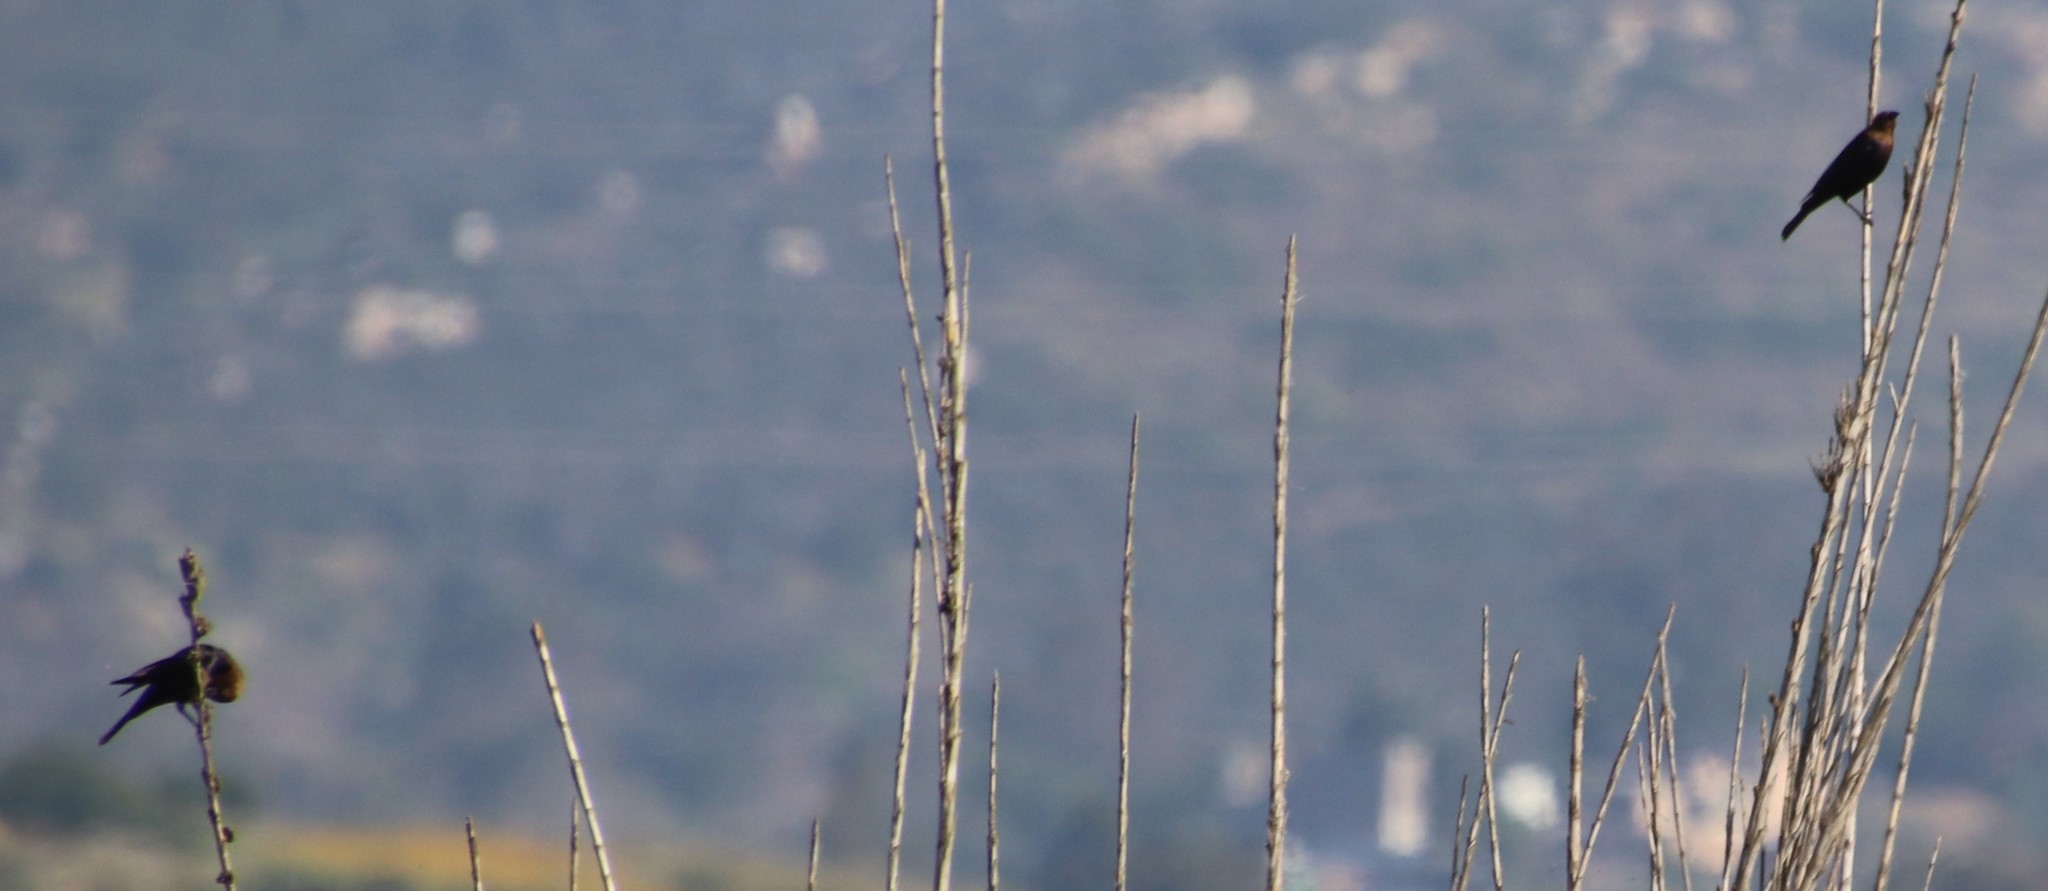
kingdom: Animalia
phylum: Chordata
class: Aves
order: Passeriformes
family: Icteridae
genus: Molothrus
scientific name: Molothrus ater
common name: Brown-headed cowbird
